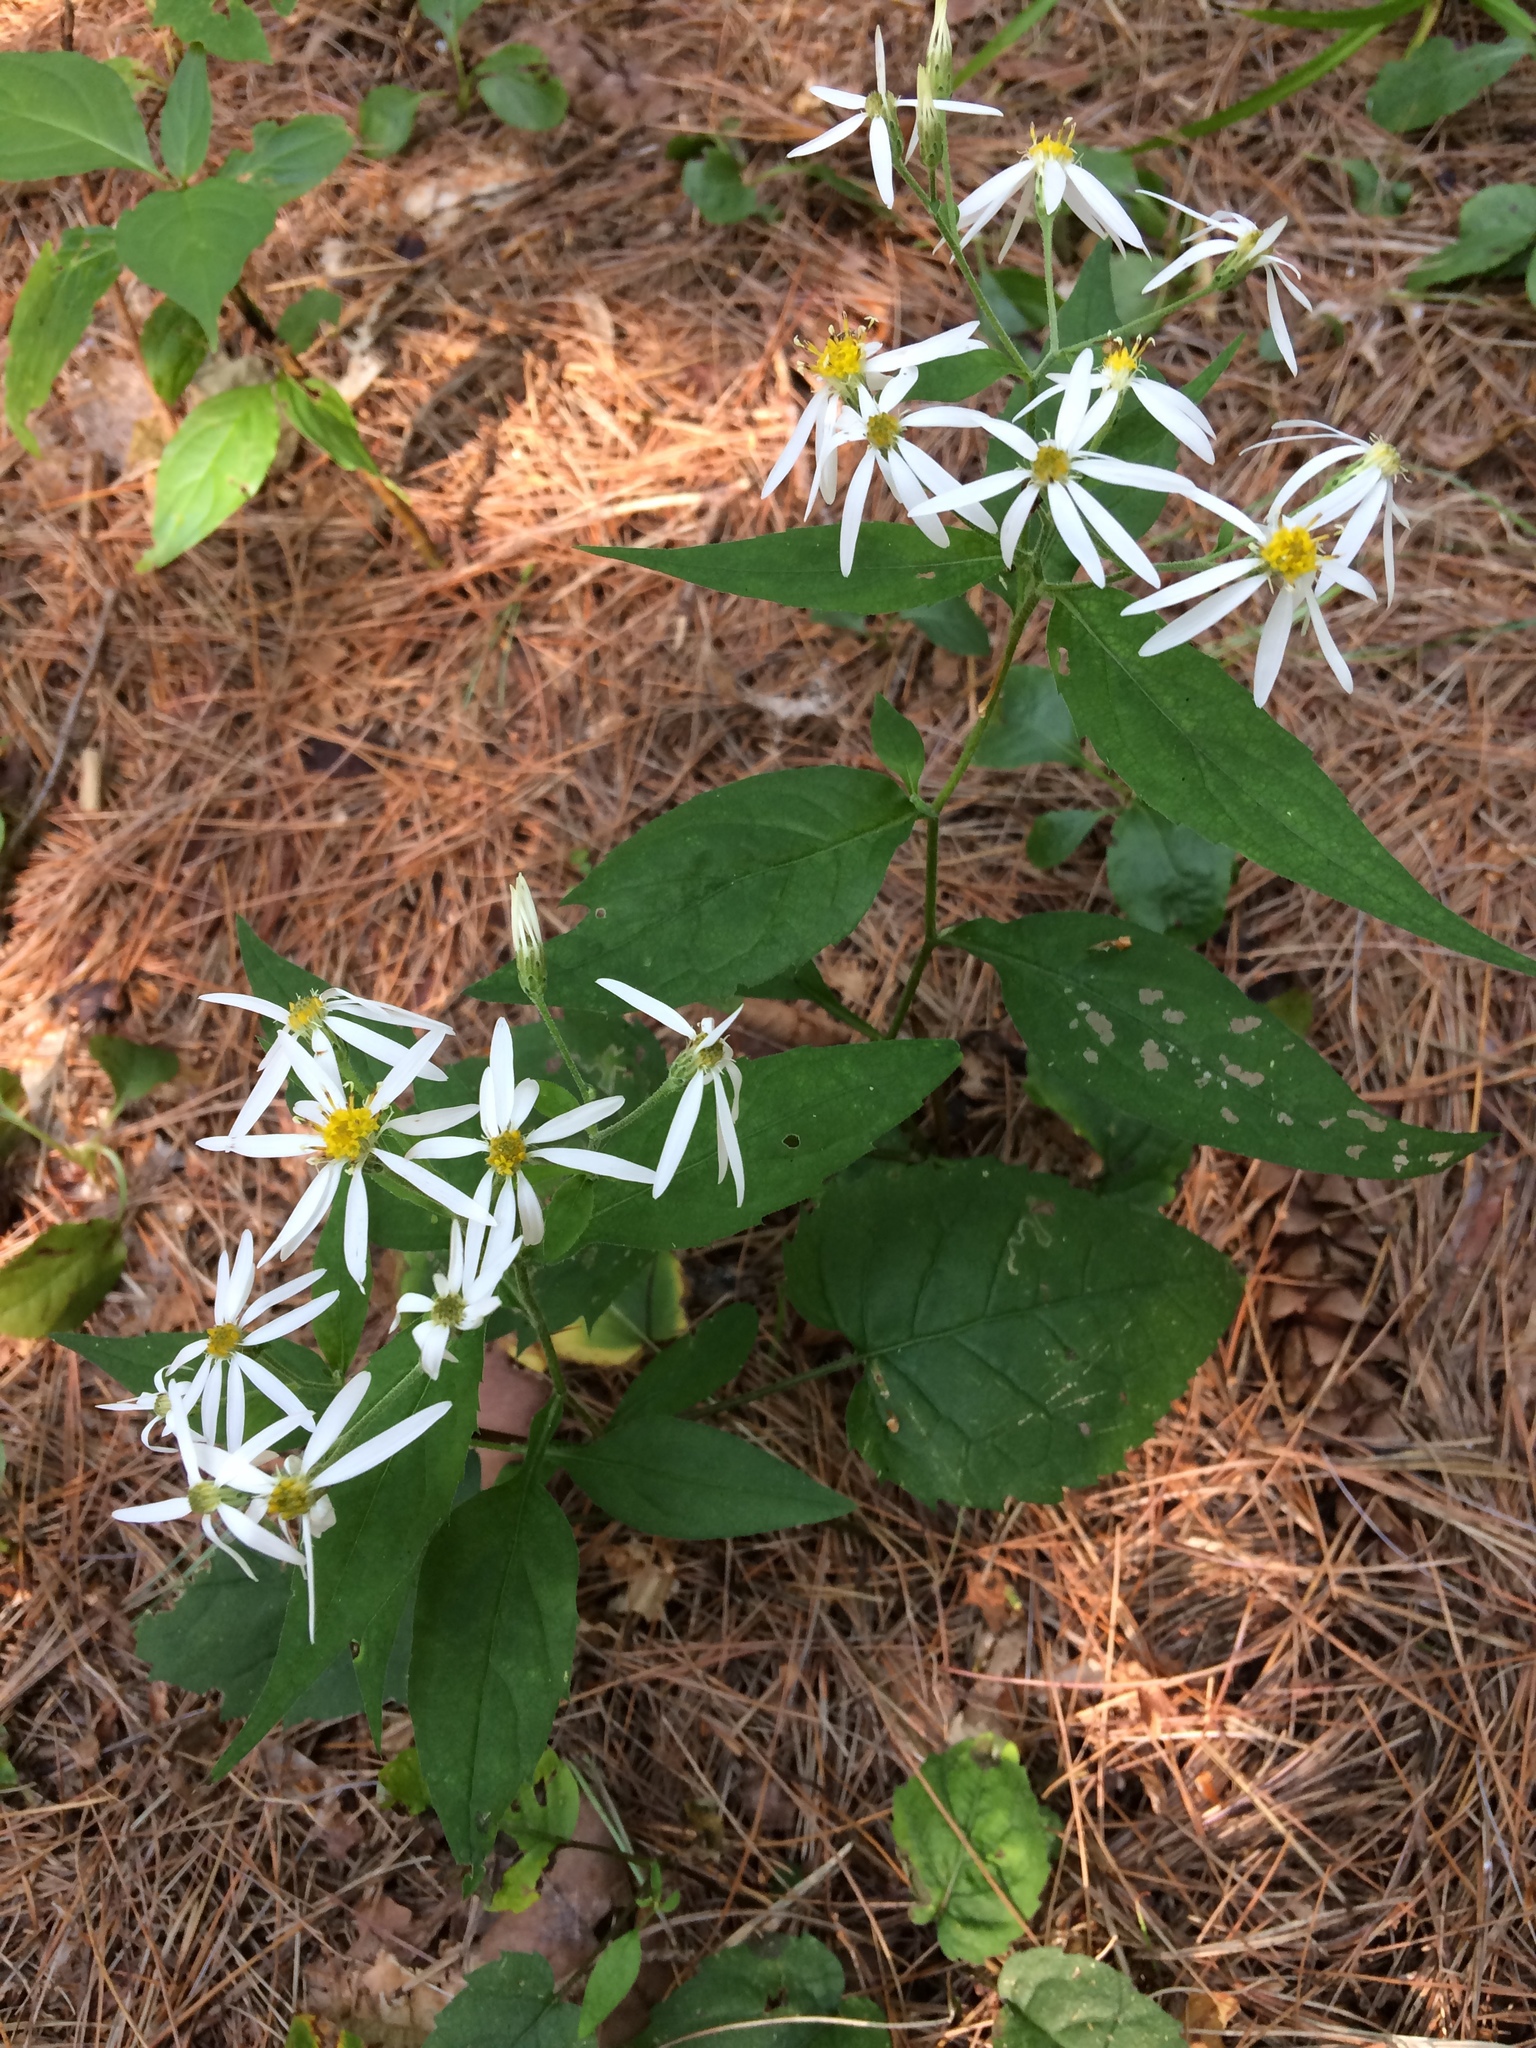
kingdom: Plantae
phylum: Tracheophyta
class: Magnoliopsida
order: Asterales
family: Asteraceae
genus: Eurybia
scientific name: Eurybia divaricata
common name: White wood aster
